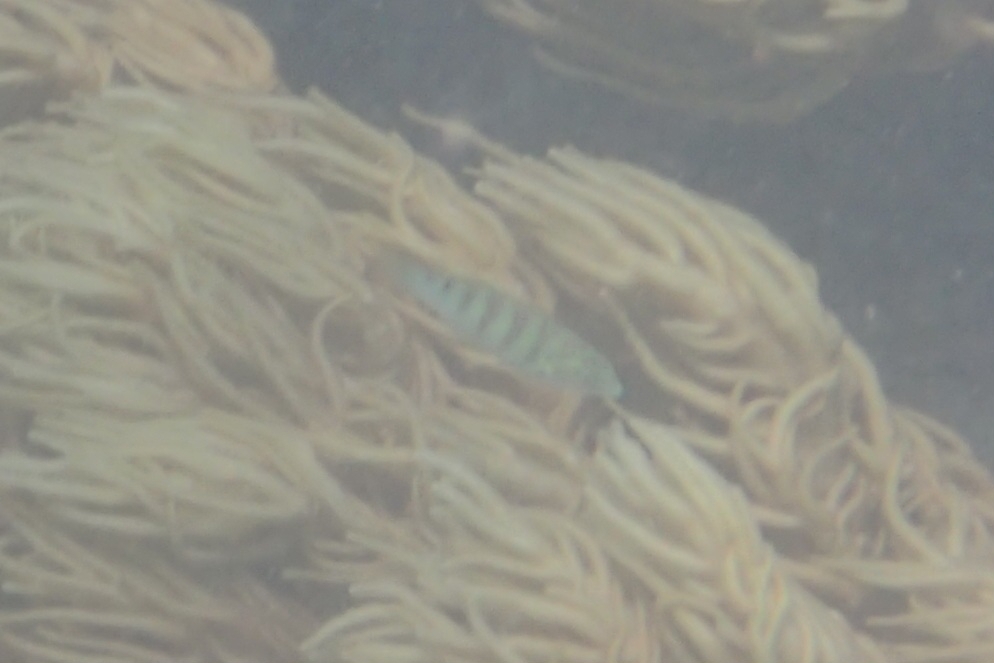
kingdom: Animalia
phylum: Chordata
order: Perciformes
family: Labridae
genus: Thalassoma
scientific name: Thalassoma hardwicke
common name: Sixbar wrasse
